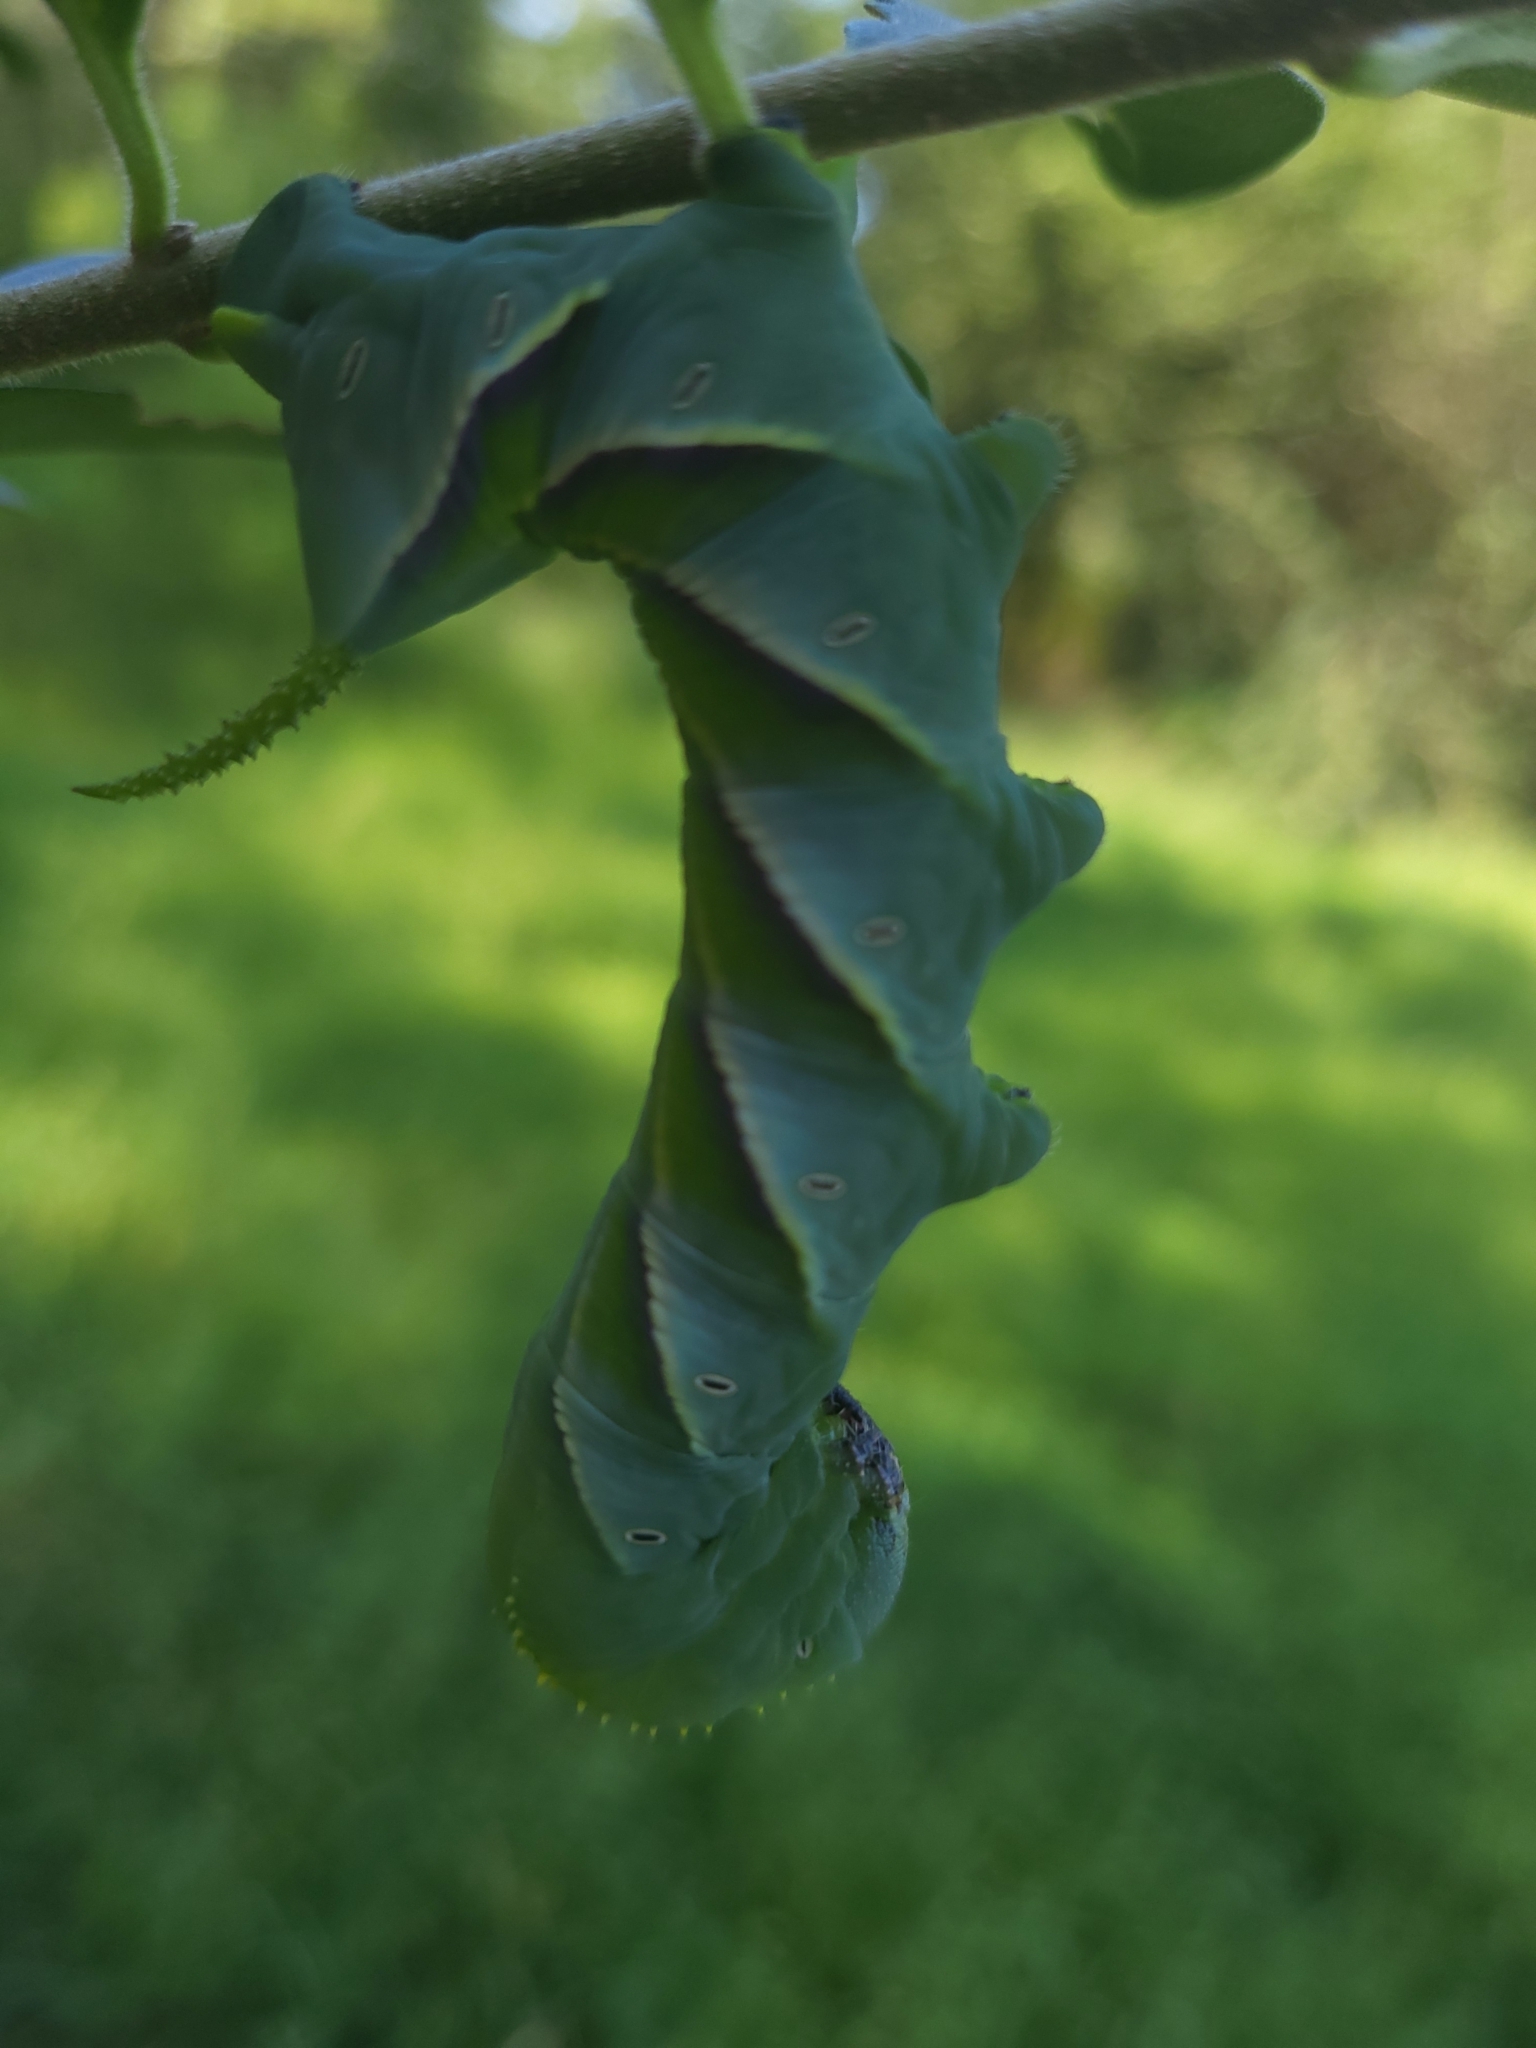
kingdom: Animalia
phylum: Arthropoda
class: Insecta
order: Lepidoptera
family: Sphingidae
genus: Manduca
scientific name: Manduca rustica
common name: Rustic sphinx
